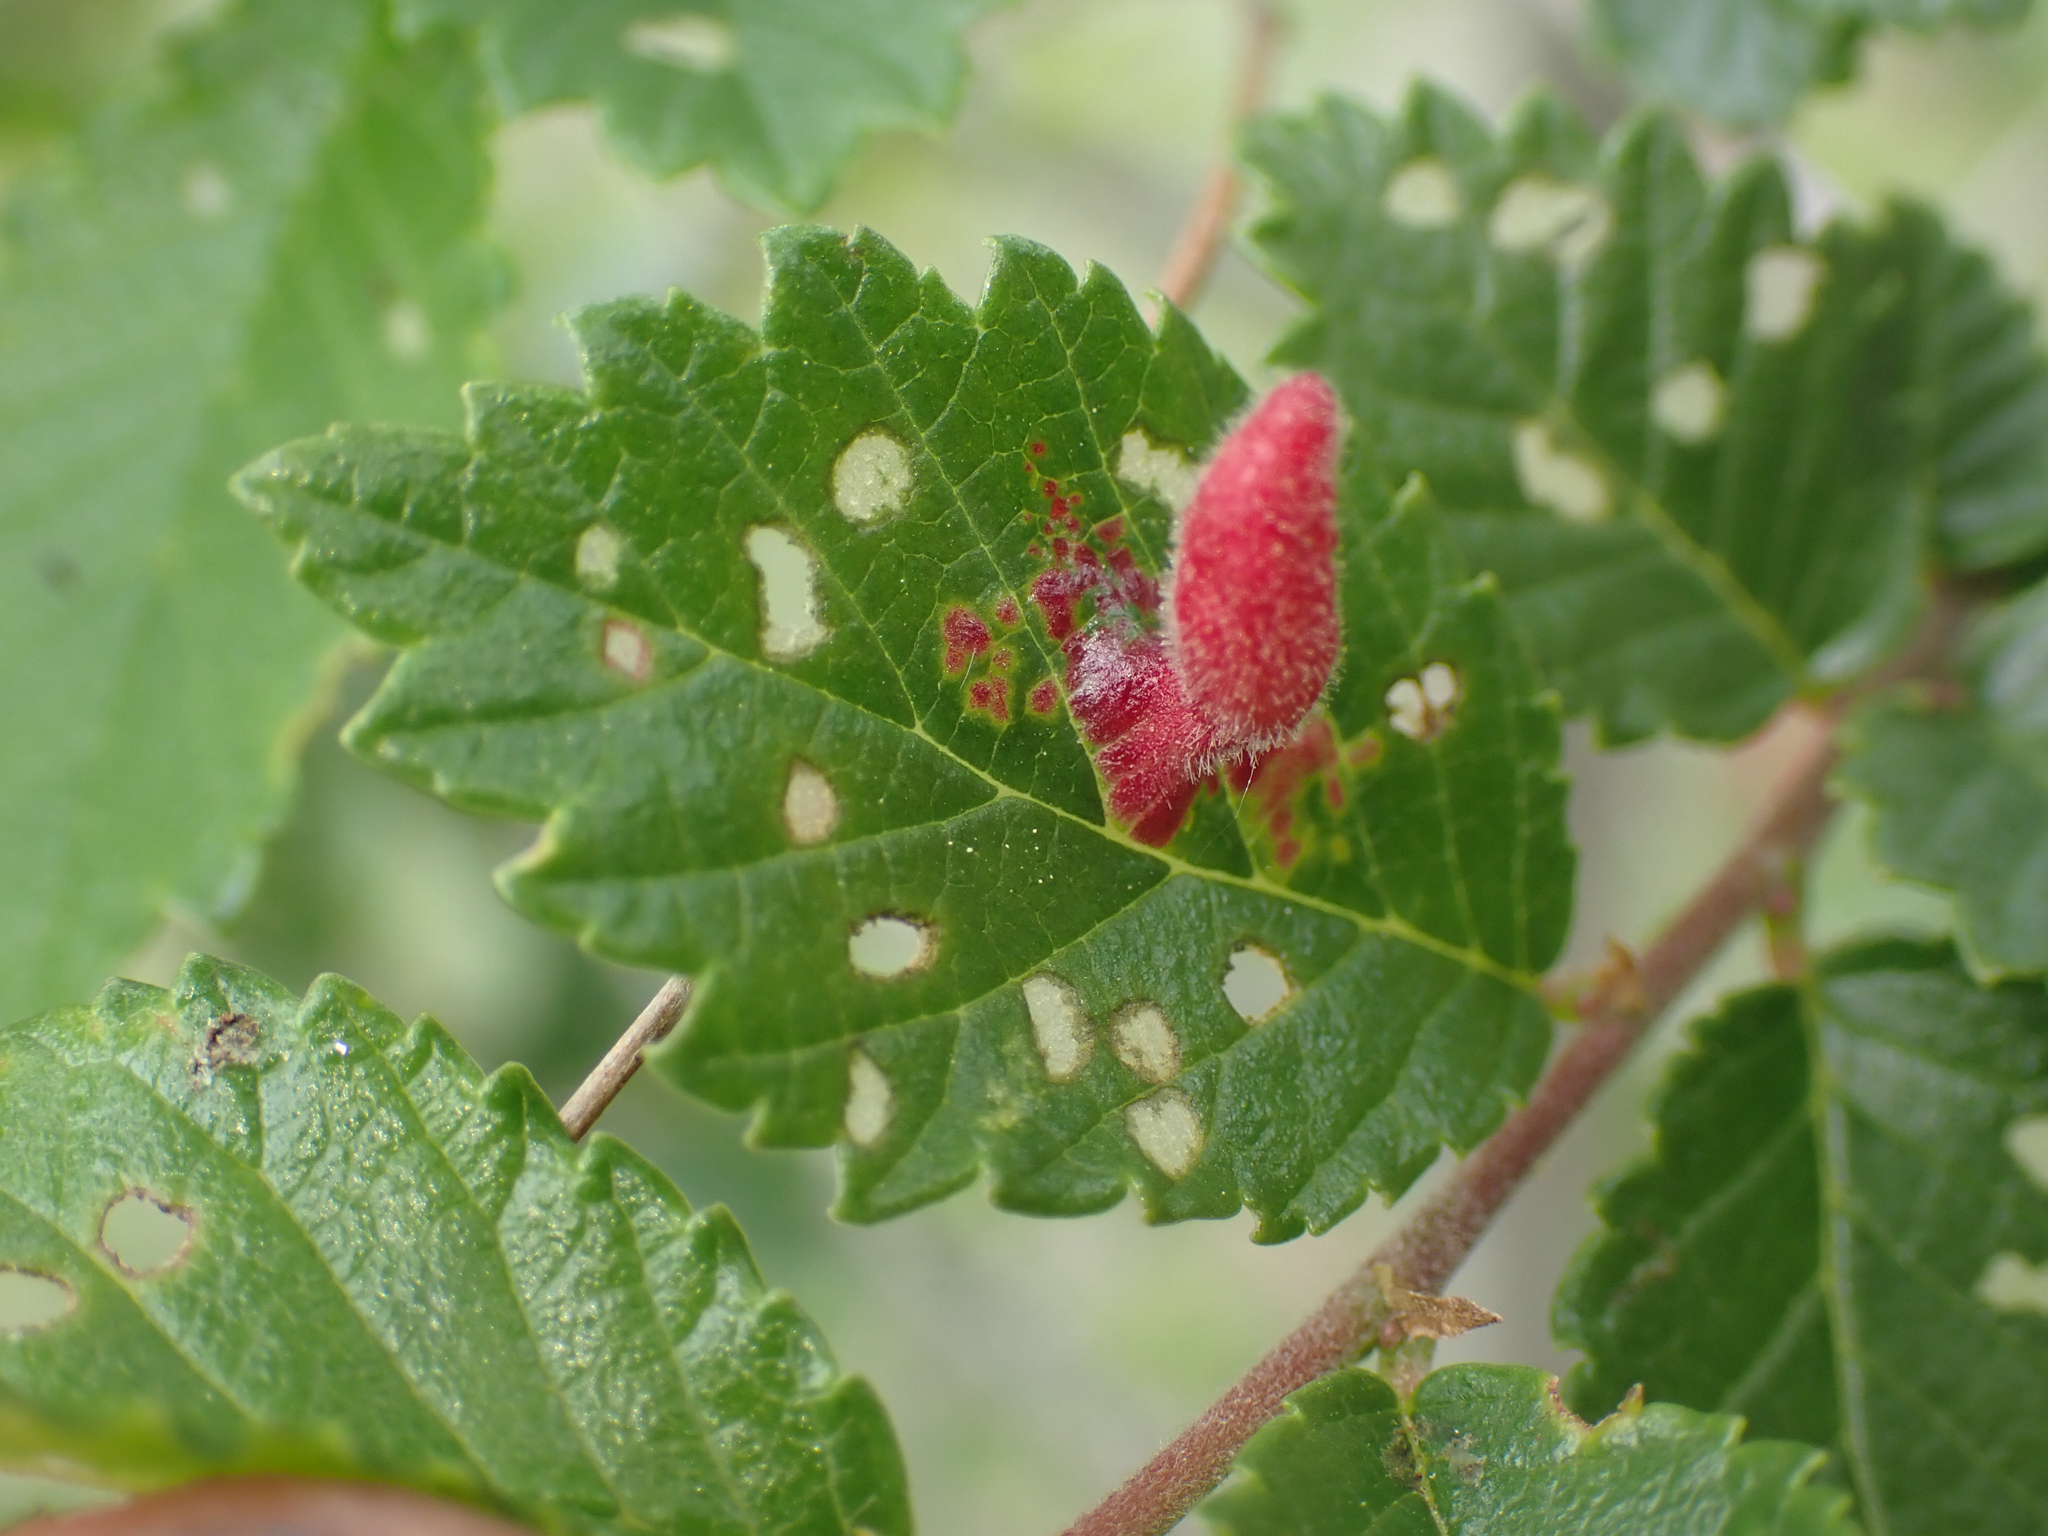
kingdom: Animalia
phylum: Arthropoda
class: Insecta
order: Hemiptera
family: Aphididae
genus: Tetraneura
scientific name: Tetraneura nigriabdominalis
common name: Aphid
